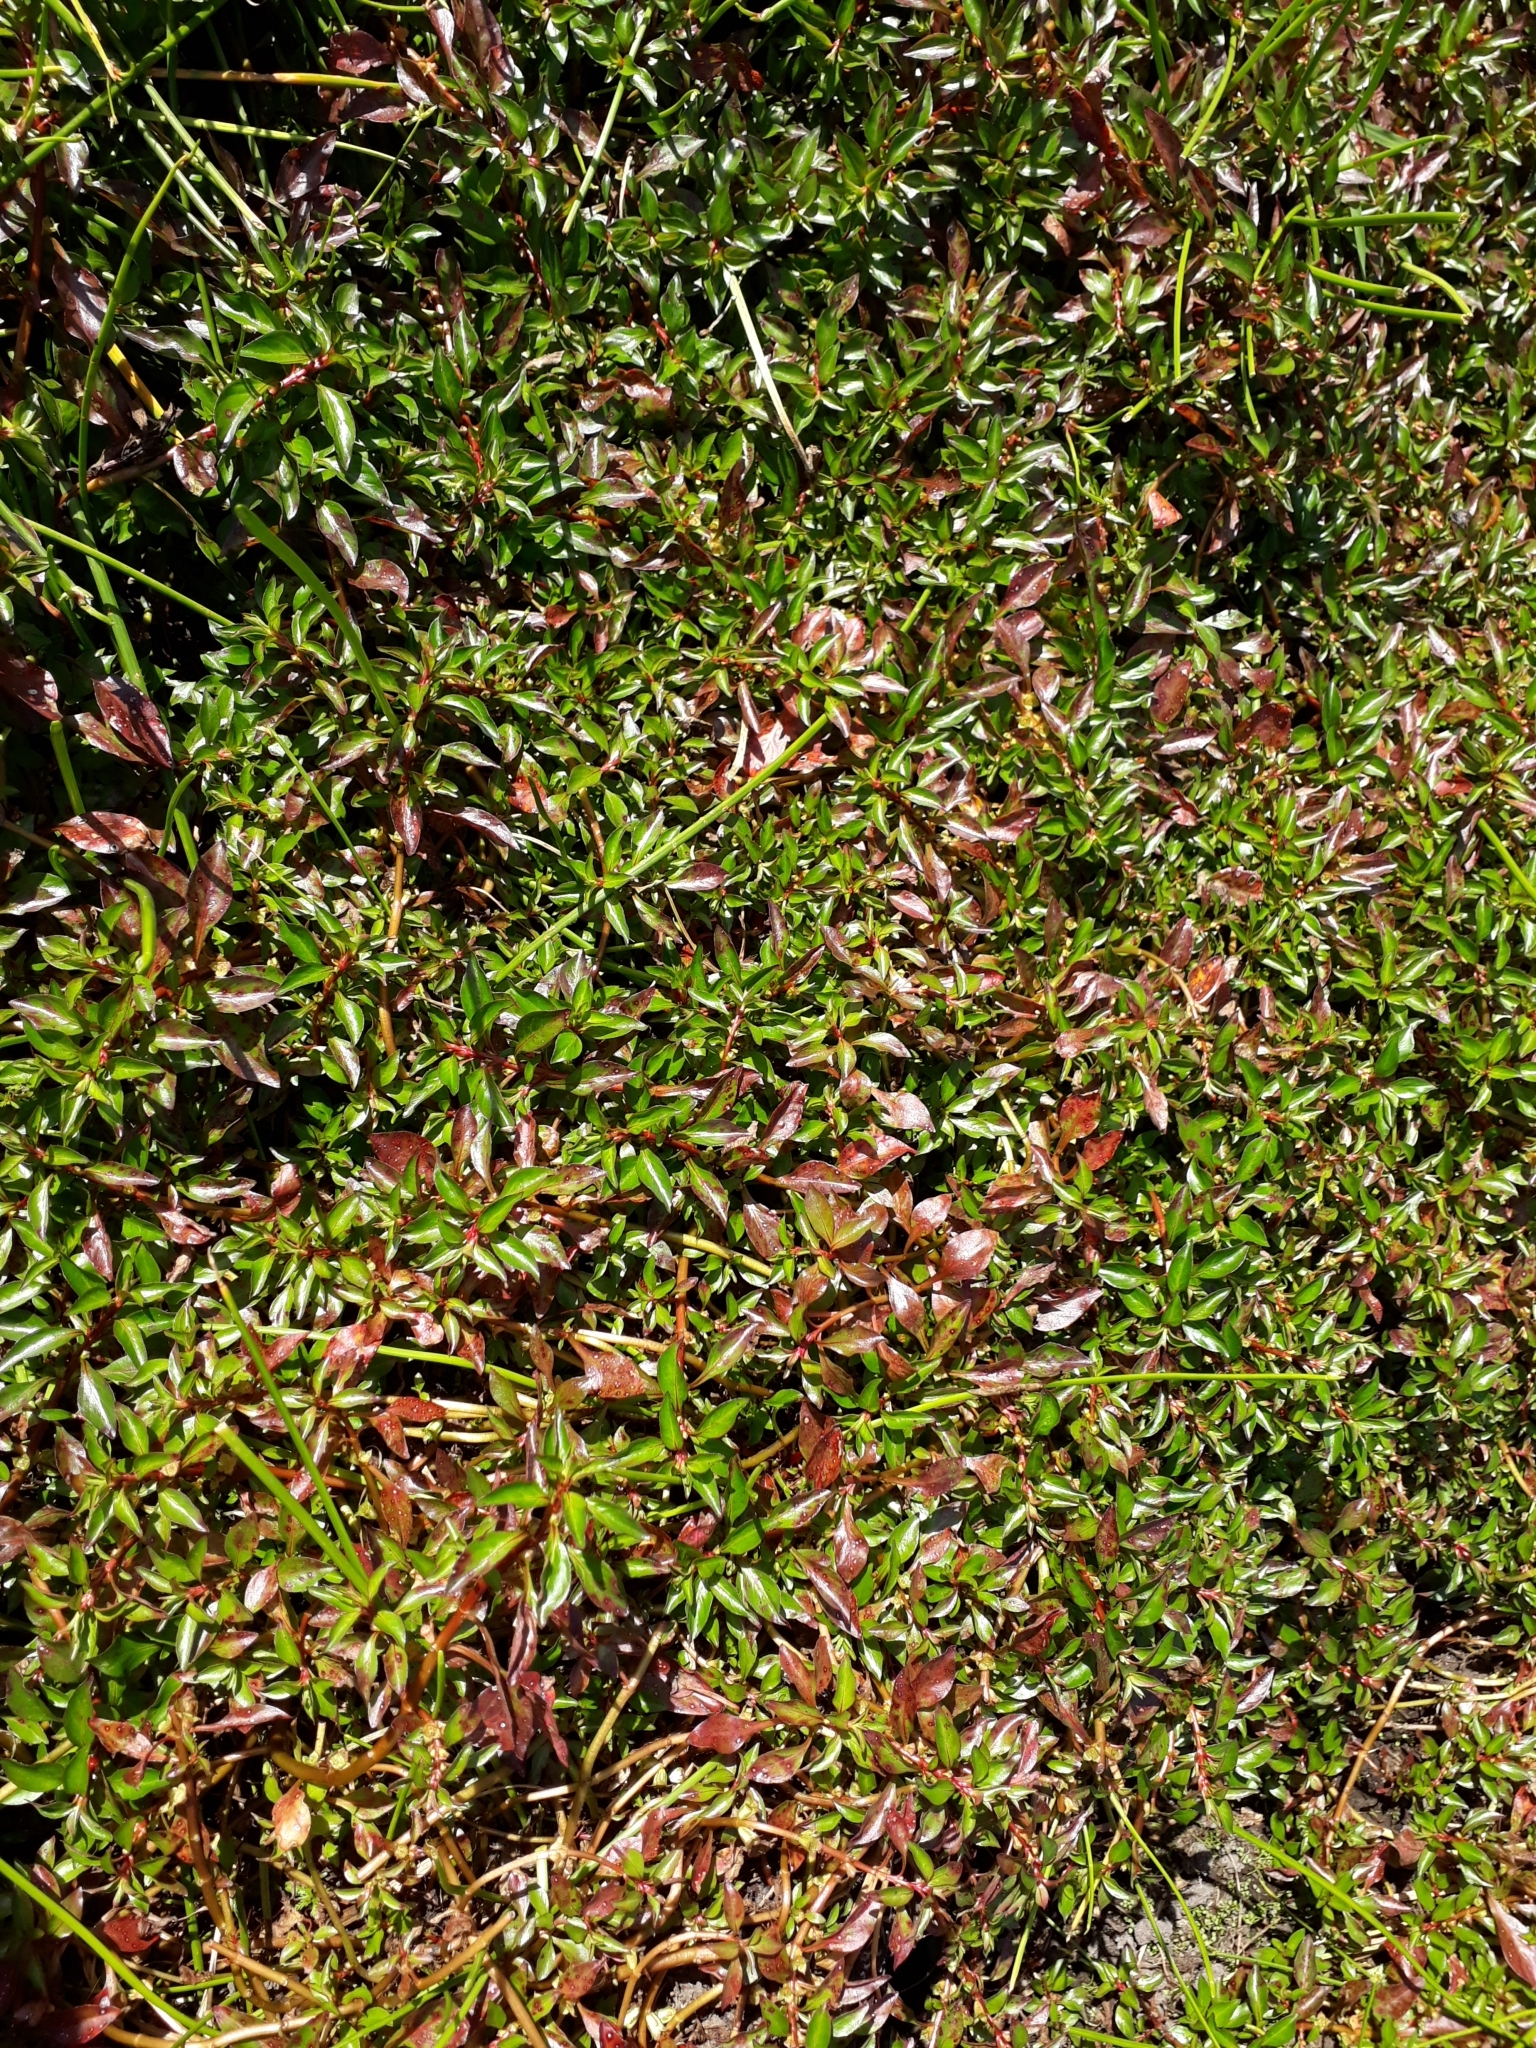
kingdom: Plantae
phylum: Tracheophyta
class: Magnoliopsida
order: Myrtales
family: Onagraceae
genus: Ludwigia
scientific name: Ludwigia palustris
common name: Hampshire-purslane
